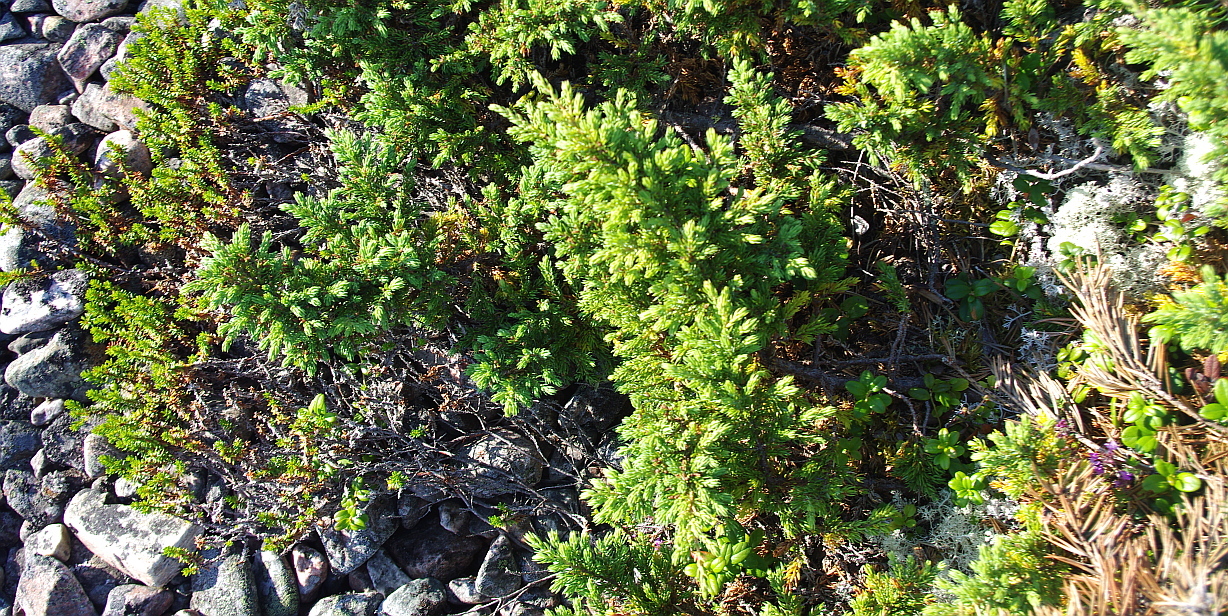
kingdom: Plantae
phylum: Tracheophyta
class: Magnoliopsida
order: Ericales
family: Ericaceae
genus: Empetrum
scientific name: Empetrum nigrum
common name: Black crowberry
